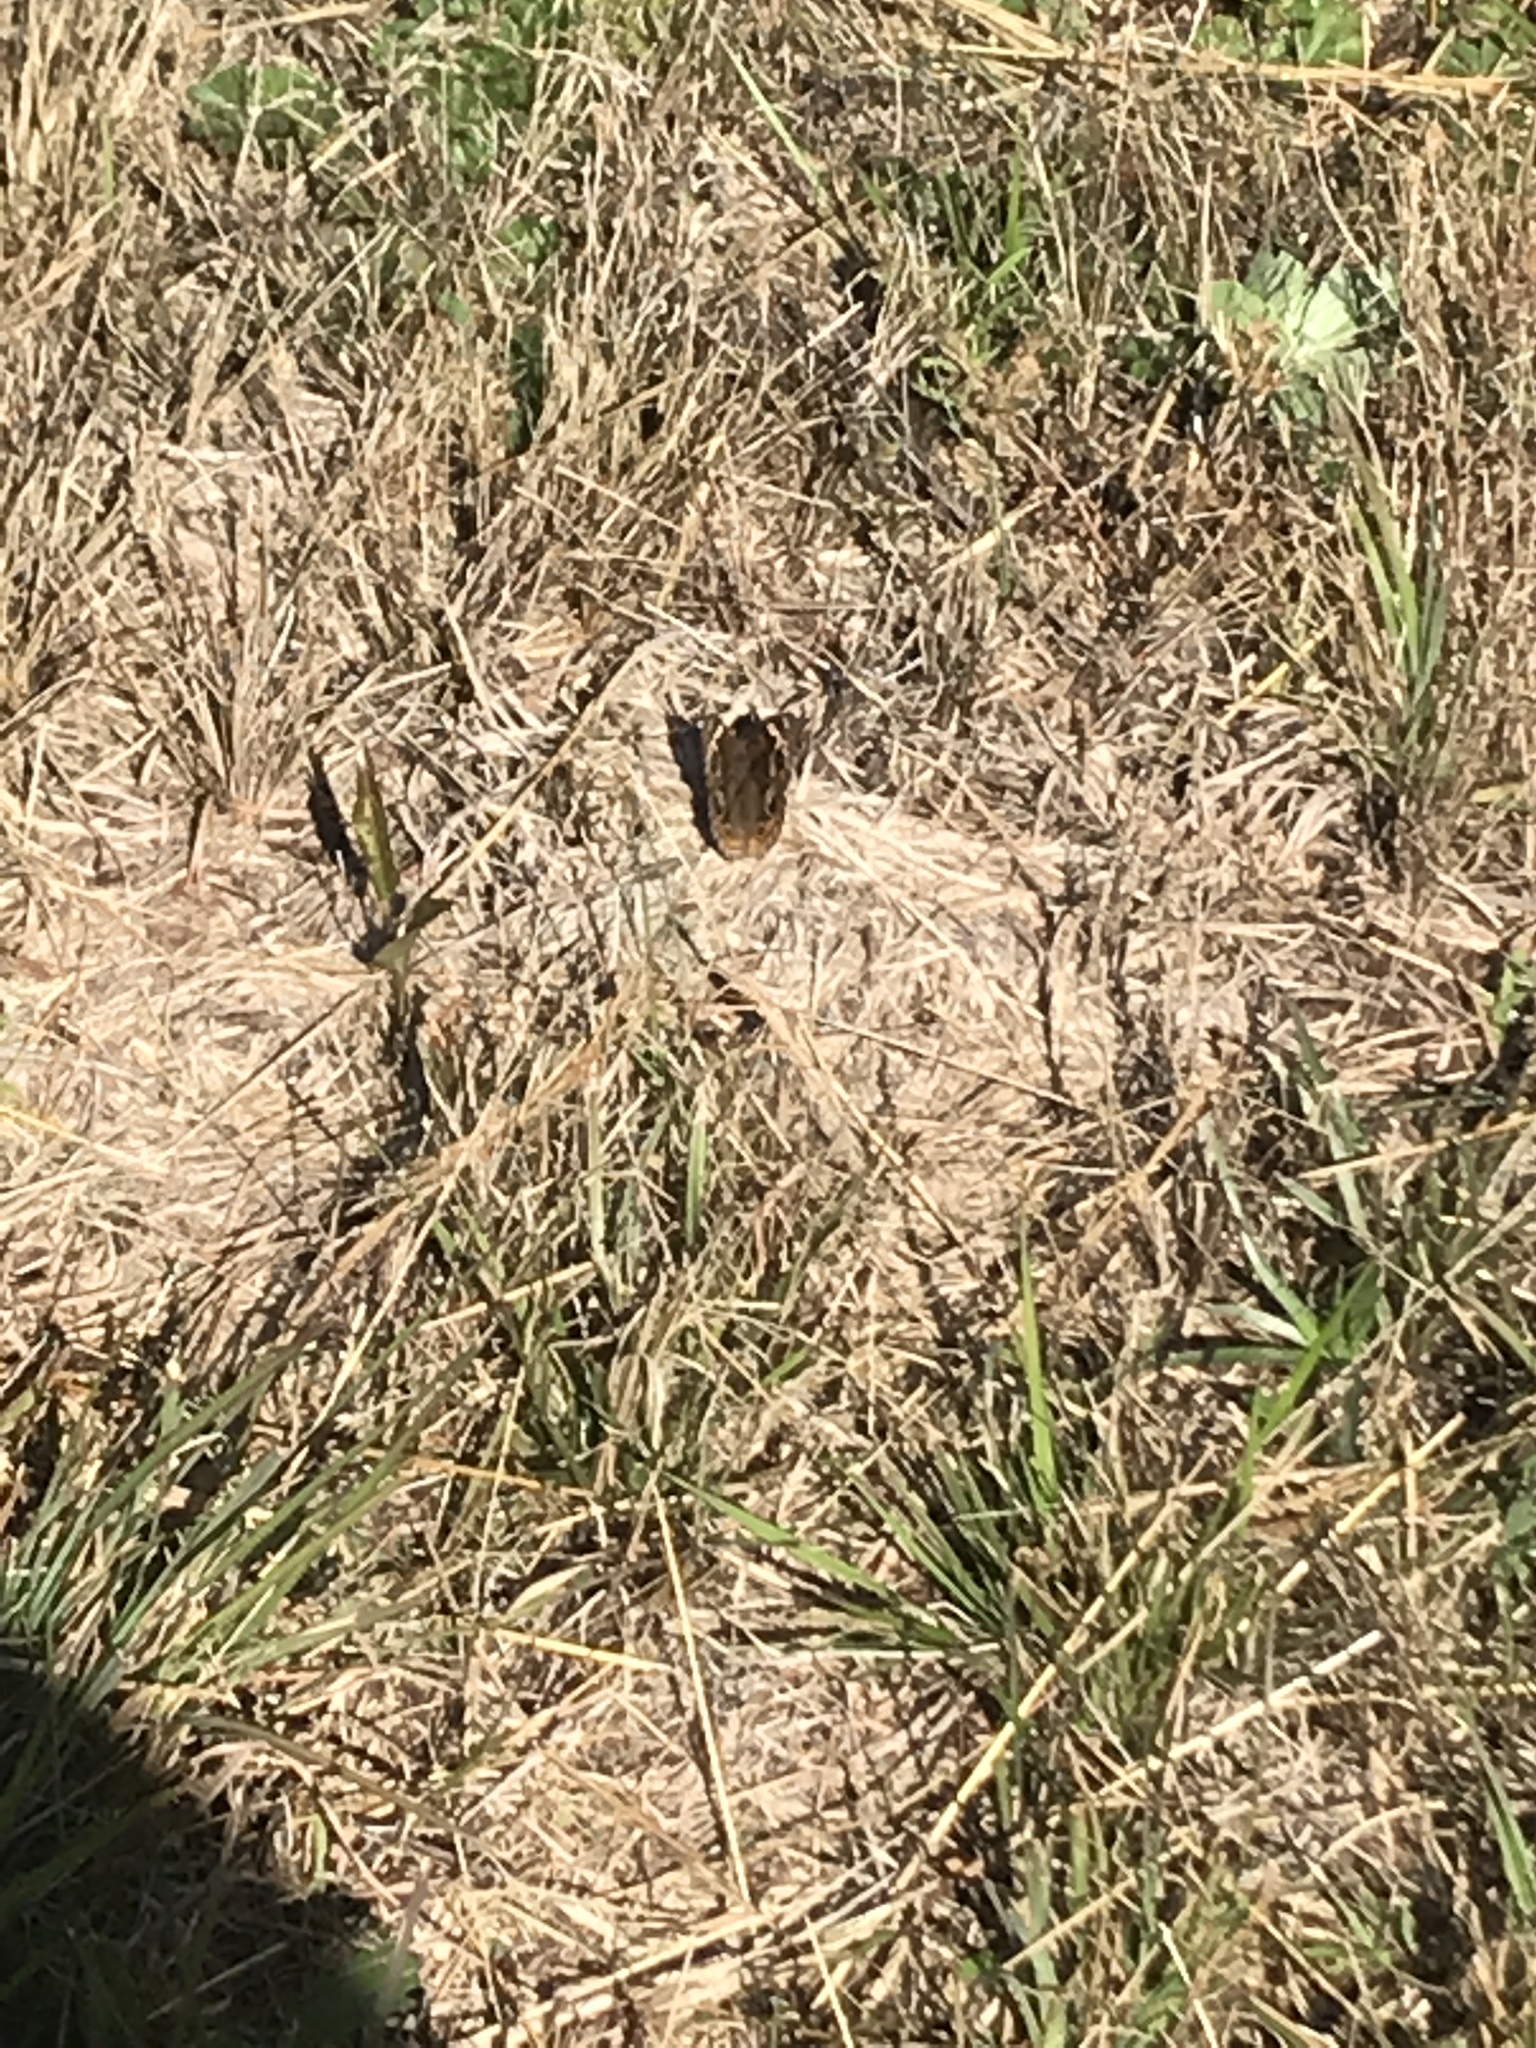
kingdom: Animalia
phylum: Arthropoda
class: Insecta
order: Lepidoptera
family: Nymphalidae
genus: Junonia
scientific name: Junonia coenia
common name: Common buckeye
